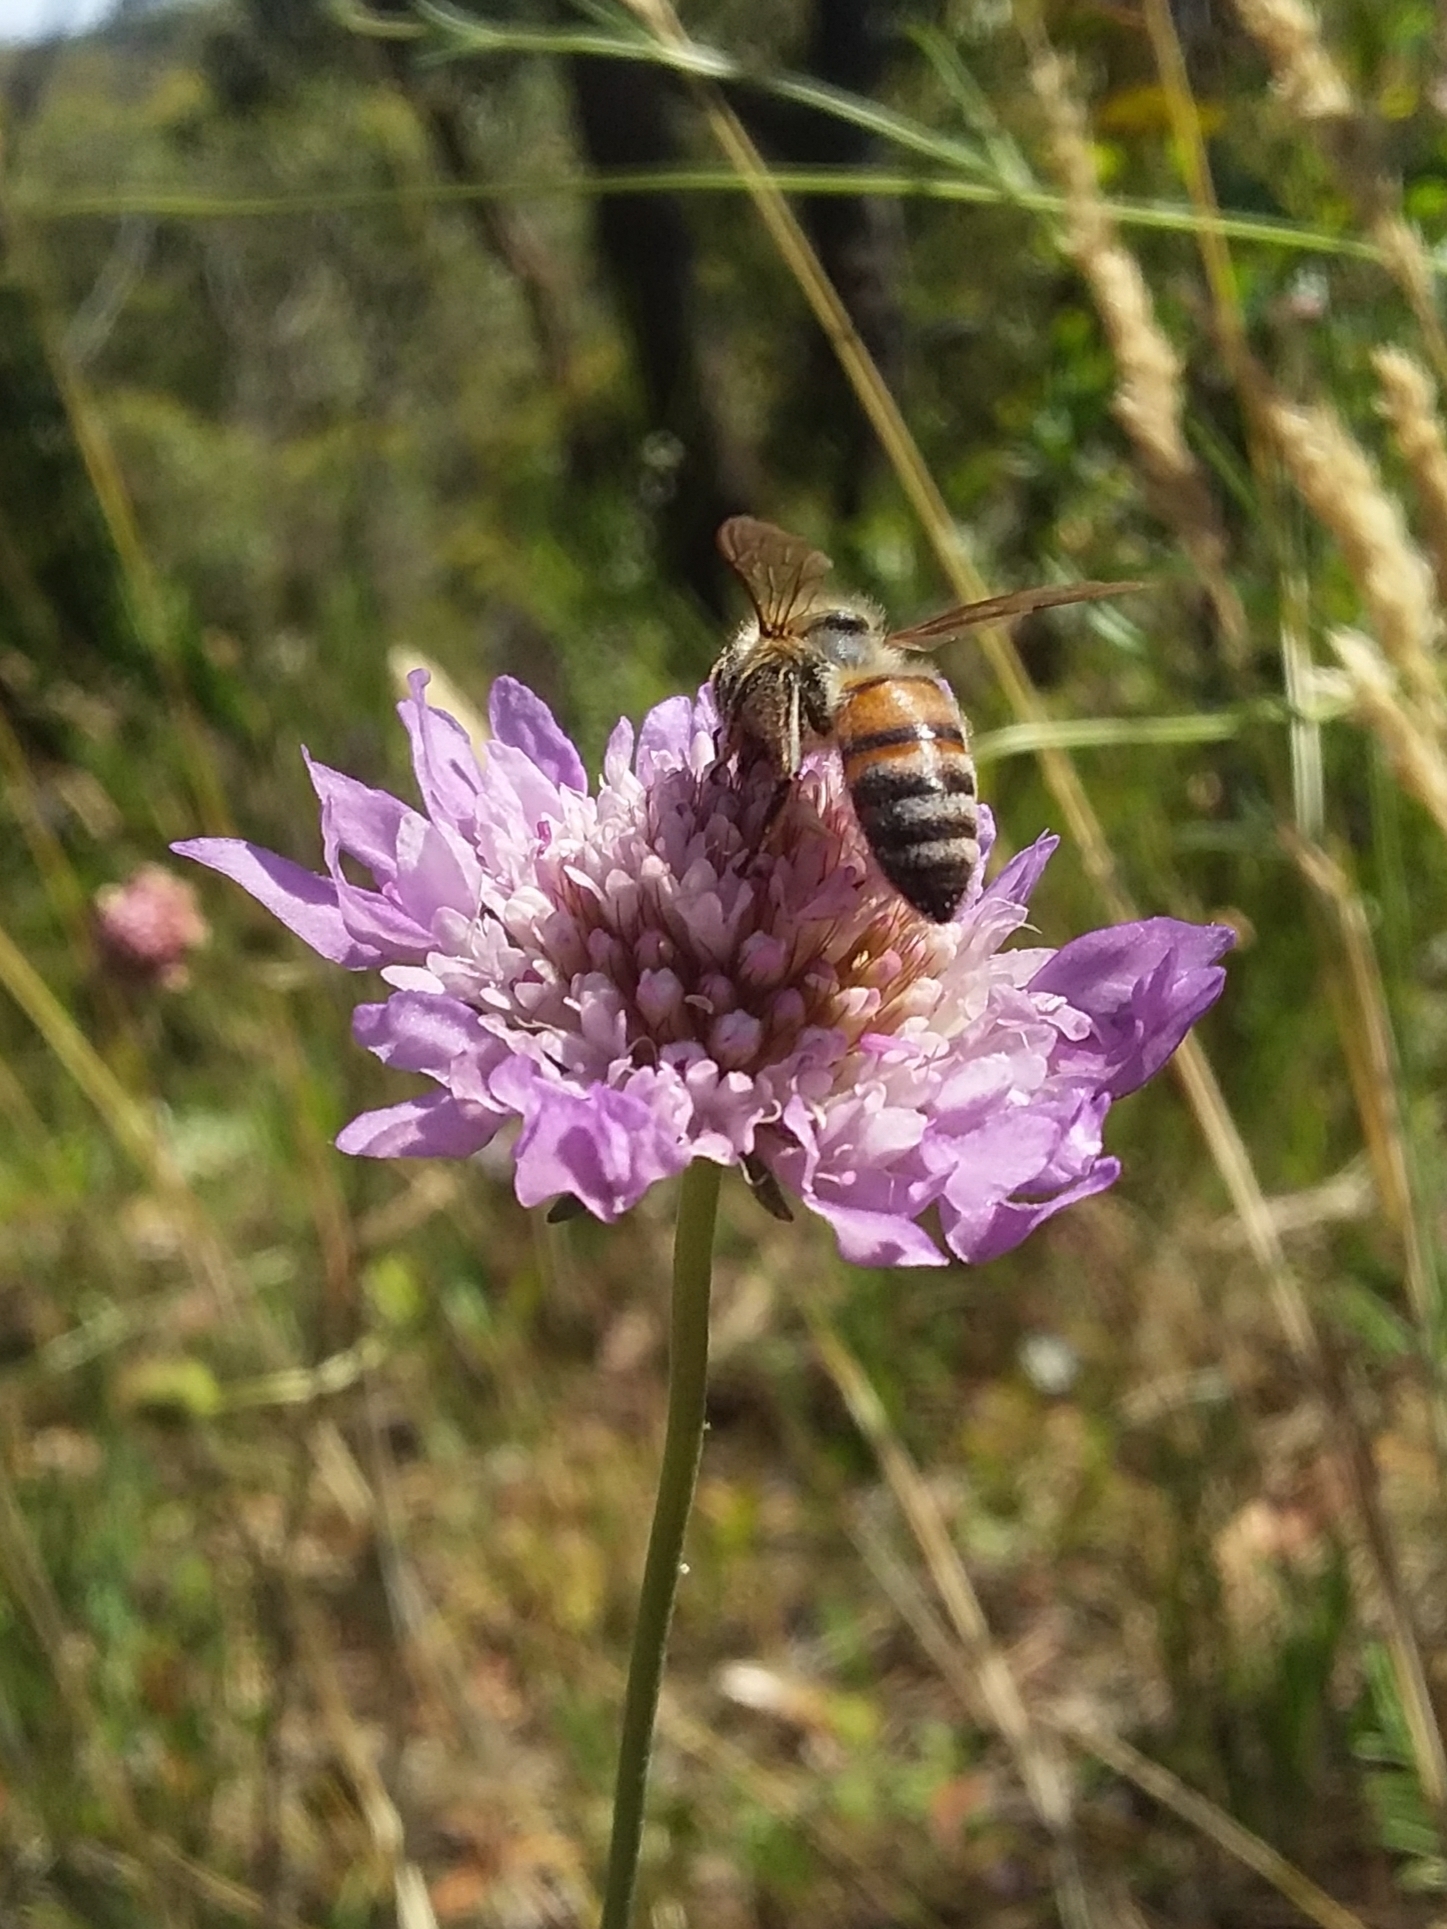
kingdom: Plantae
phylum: Tracheophyta
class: Magnoliopsida
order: Dipsacales
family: Caprifoliaceae
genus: Sixalix
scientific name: Sixalix atropurpurea
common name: Sweet scabious
